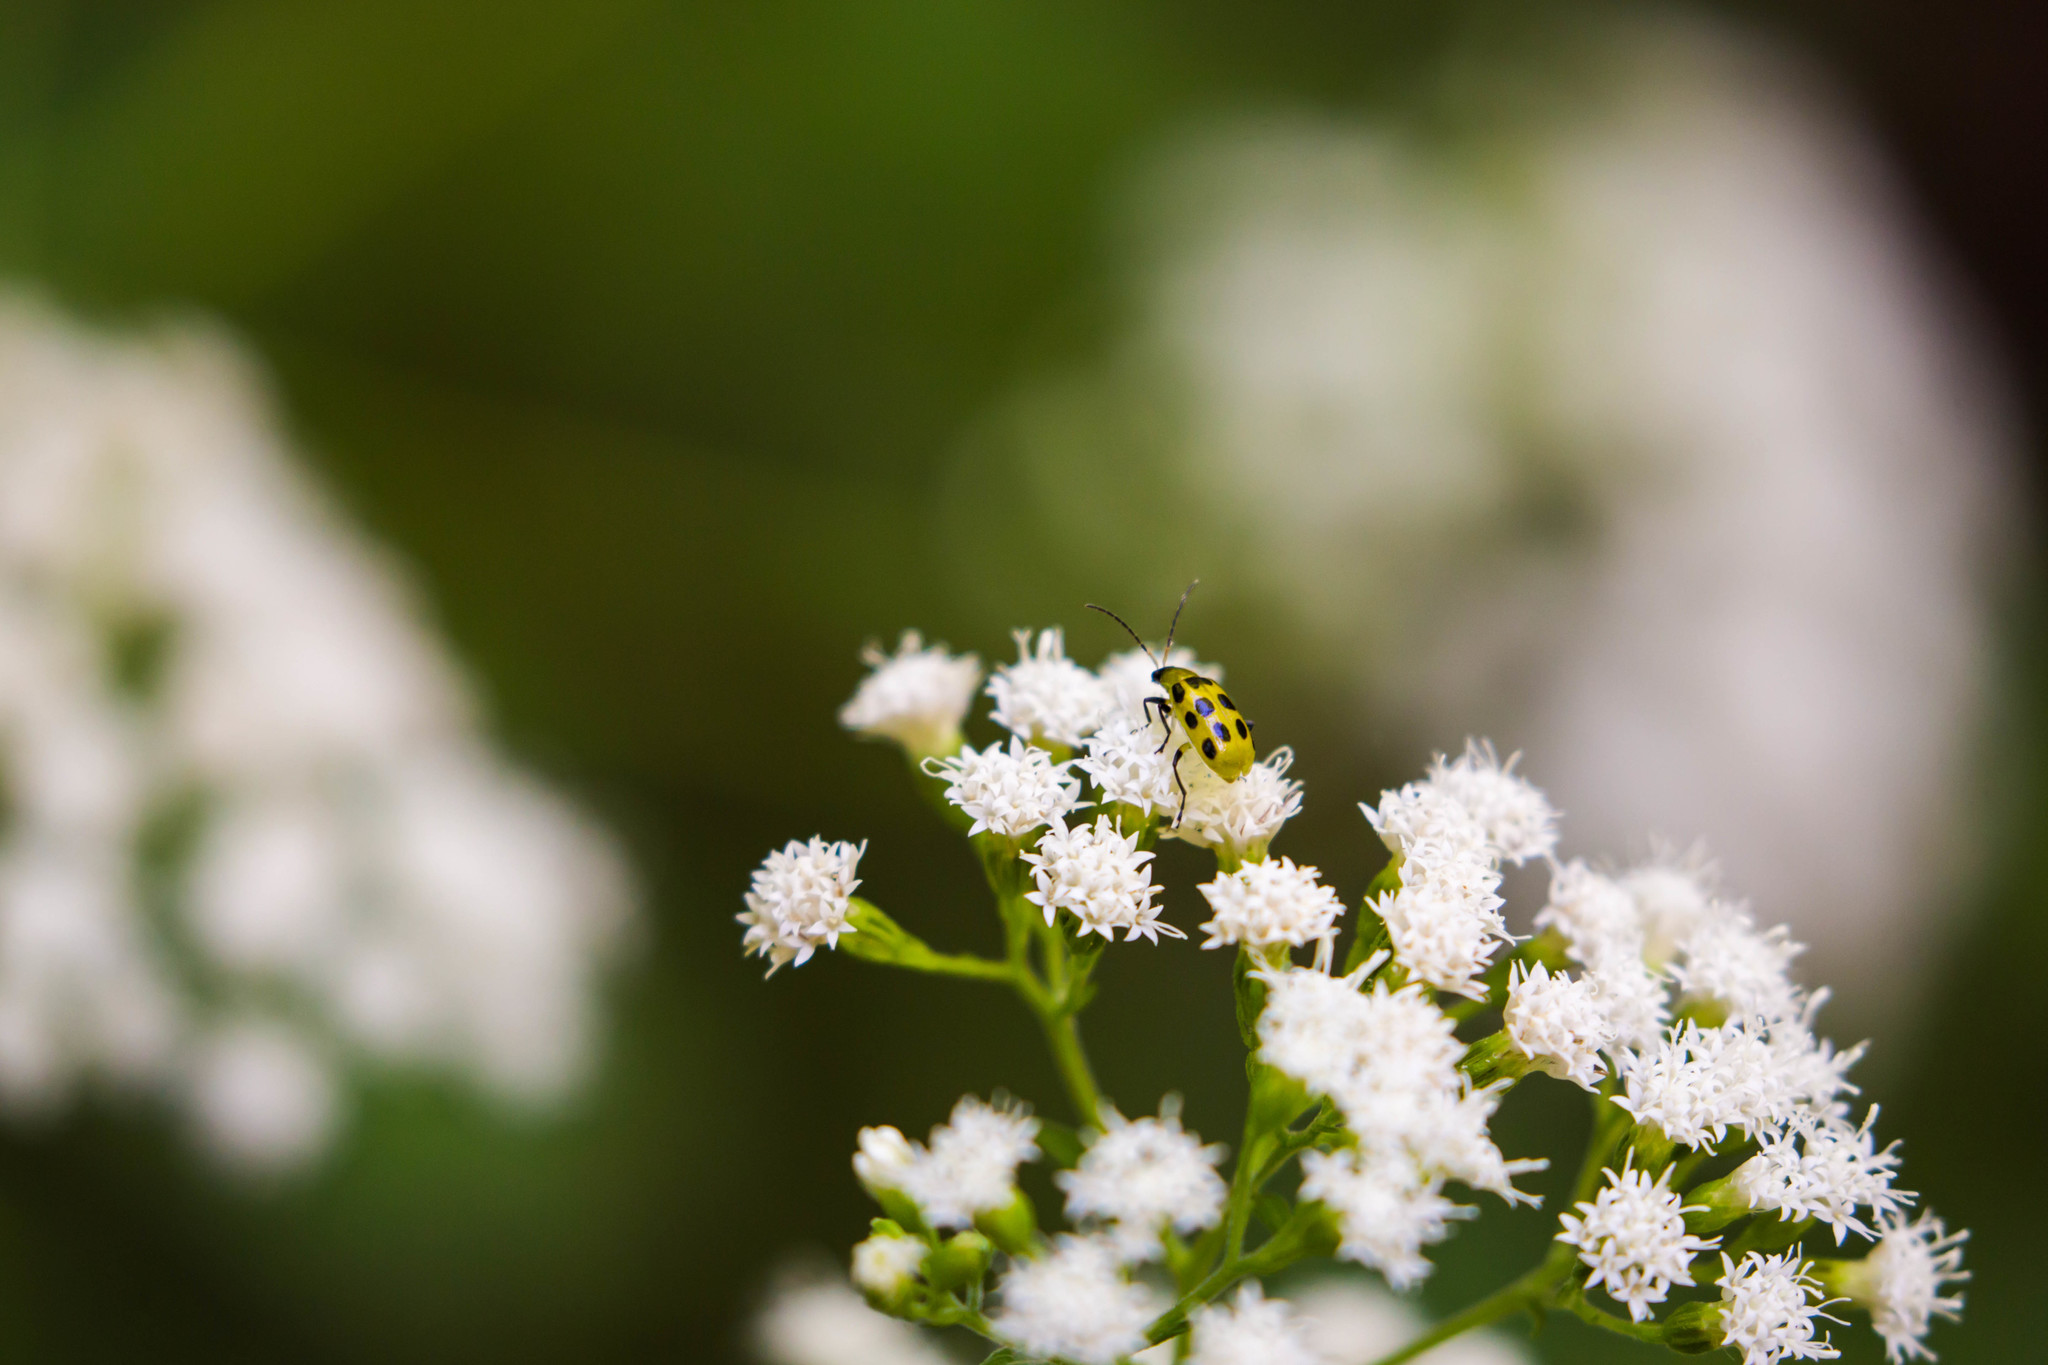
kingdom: Animalia
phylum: Arthropoda
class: Insecta
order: Coleoptera
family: Chrysomelidae
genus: Diabrotica
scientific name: Diabrotica undecimpunctata
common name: Spotted cucumber beetle
